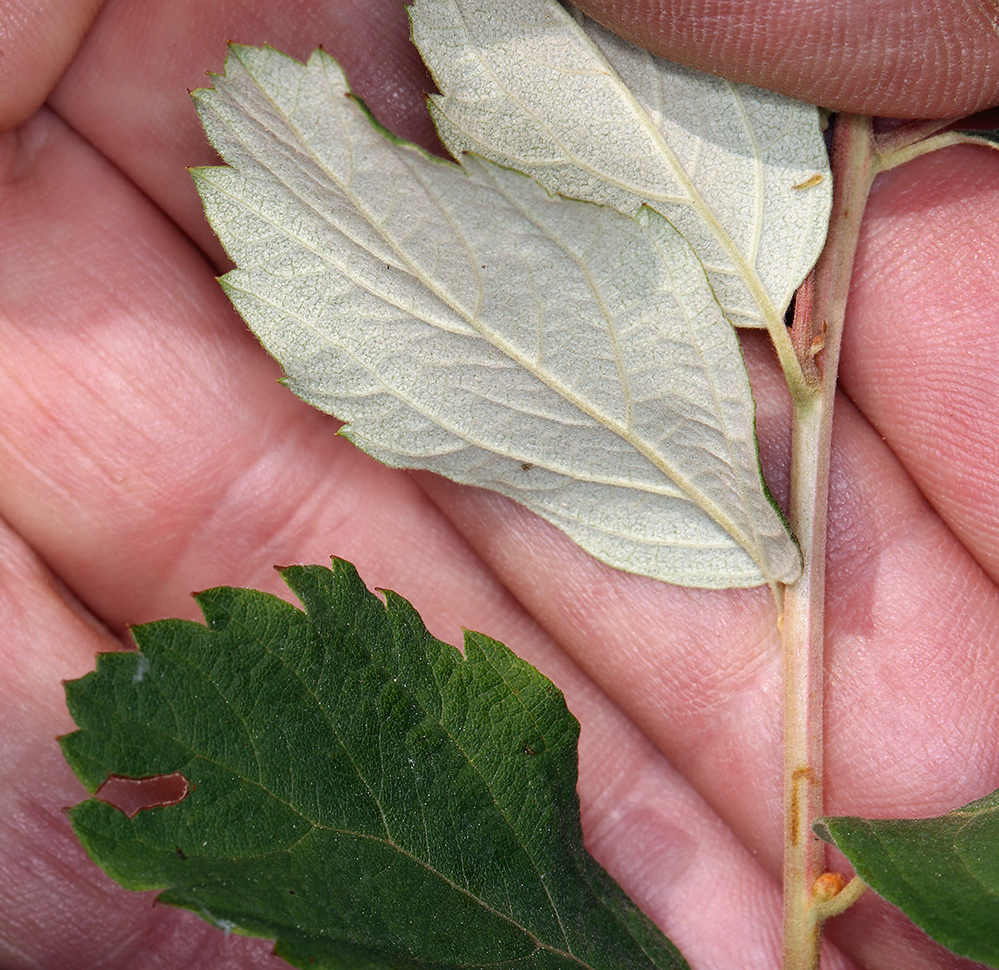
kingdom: Plantae
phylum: Tracheophyta
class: Magnoliopsida
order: Rosales
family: Rosaceae
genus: Spiraea
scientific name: Spiraea douglasii
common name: Steeplebush
